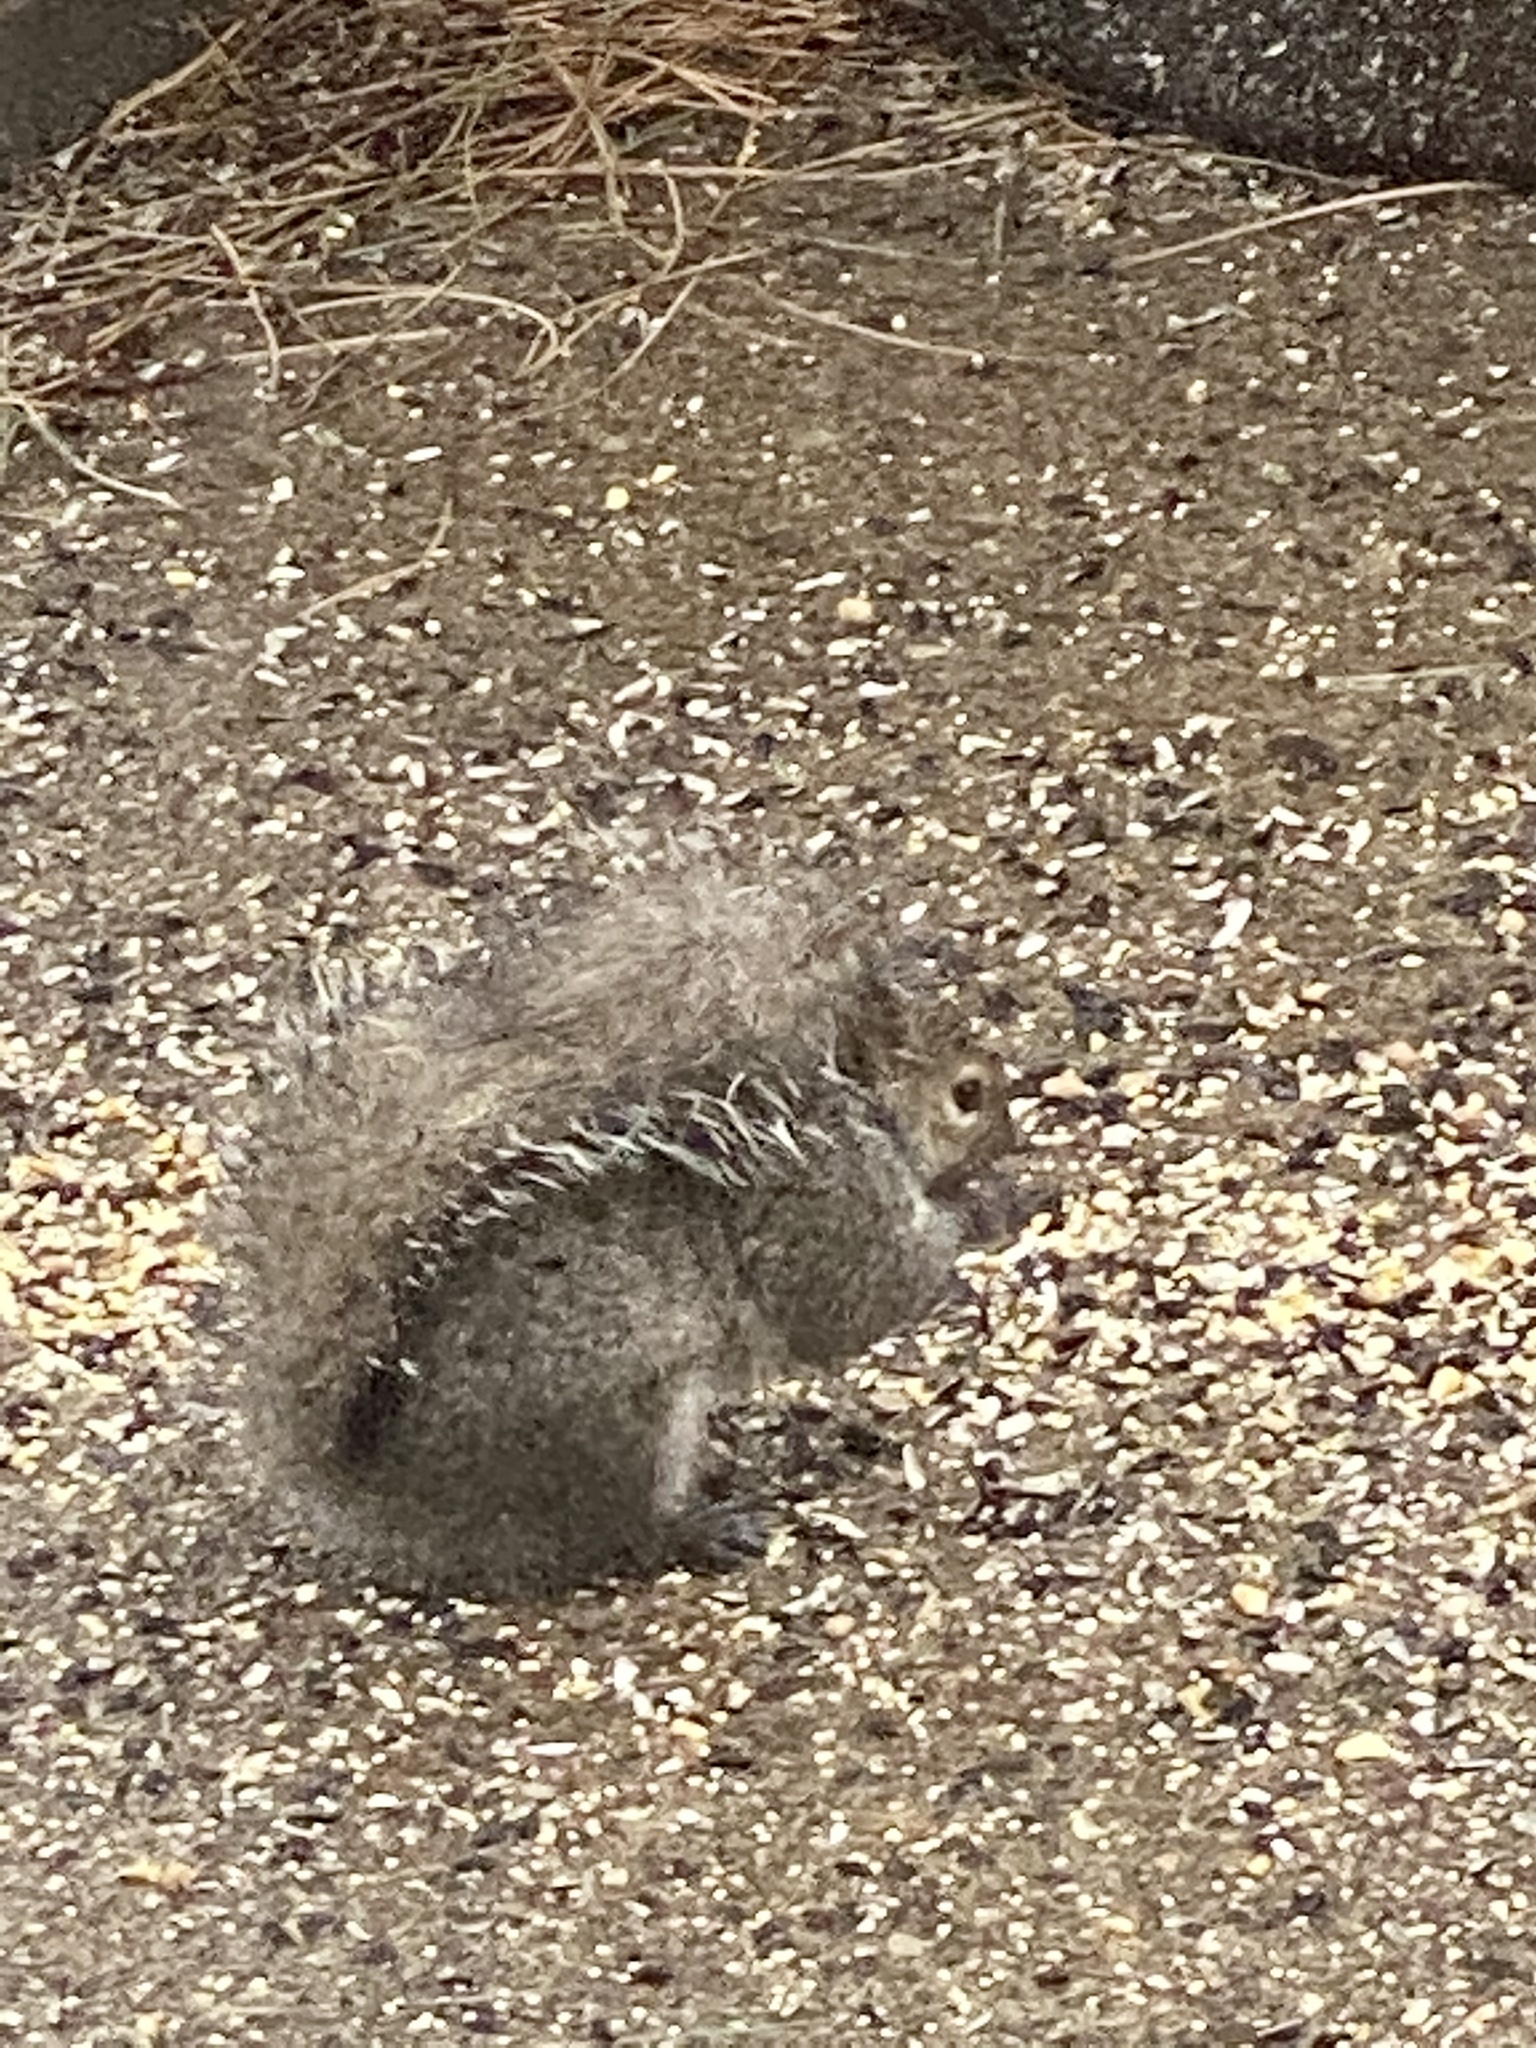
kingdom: Animalia
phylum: Chordata
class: Mammalia
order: Rodentia
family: Sciuridae
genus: Sciurus
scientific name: Sciurus carolinensis
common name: Eastern gray squirrel
